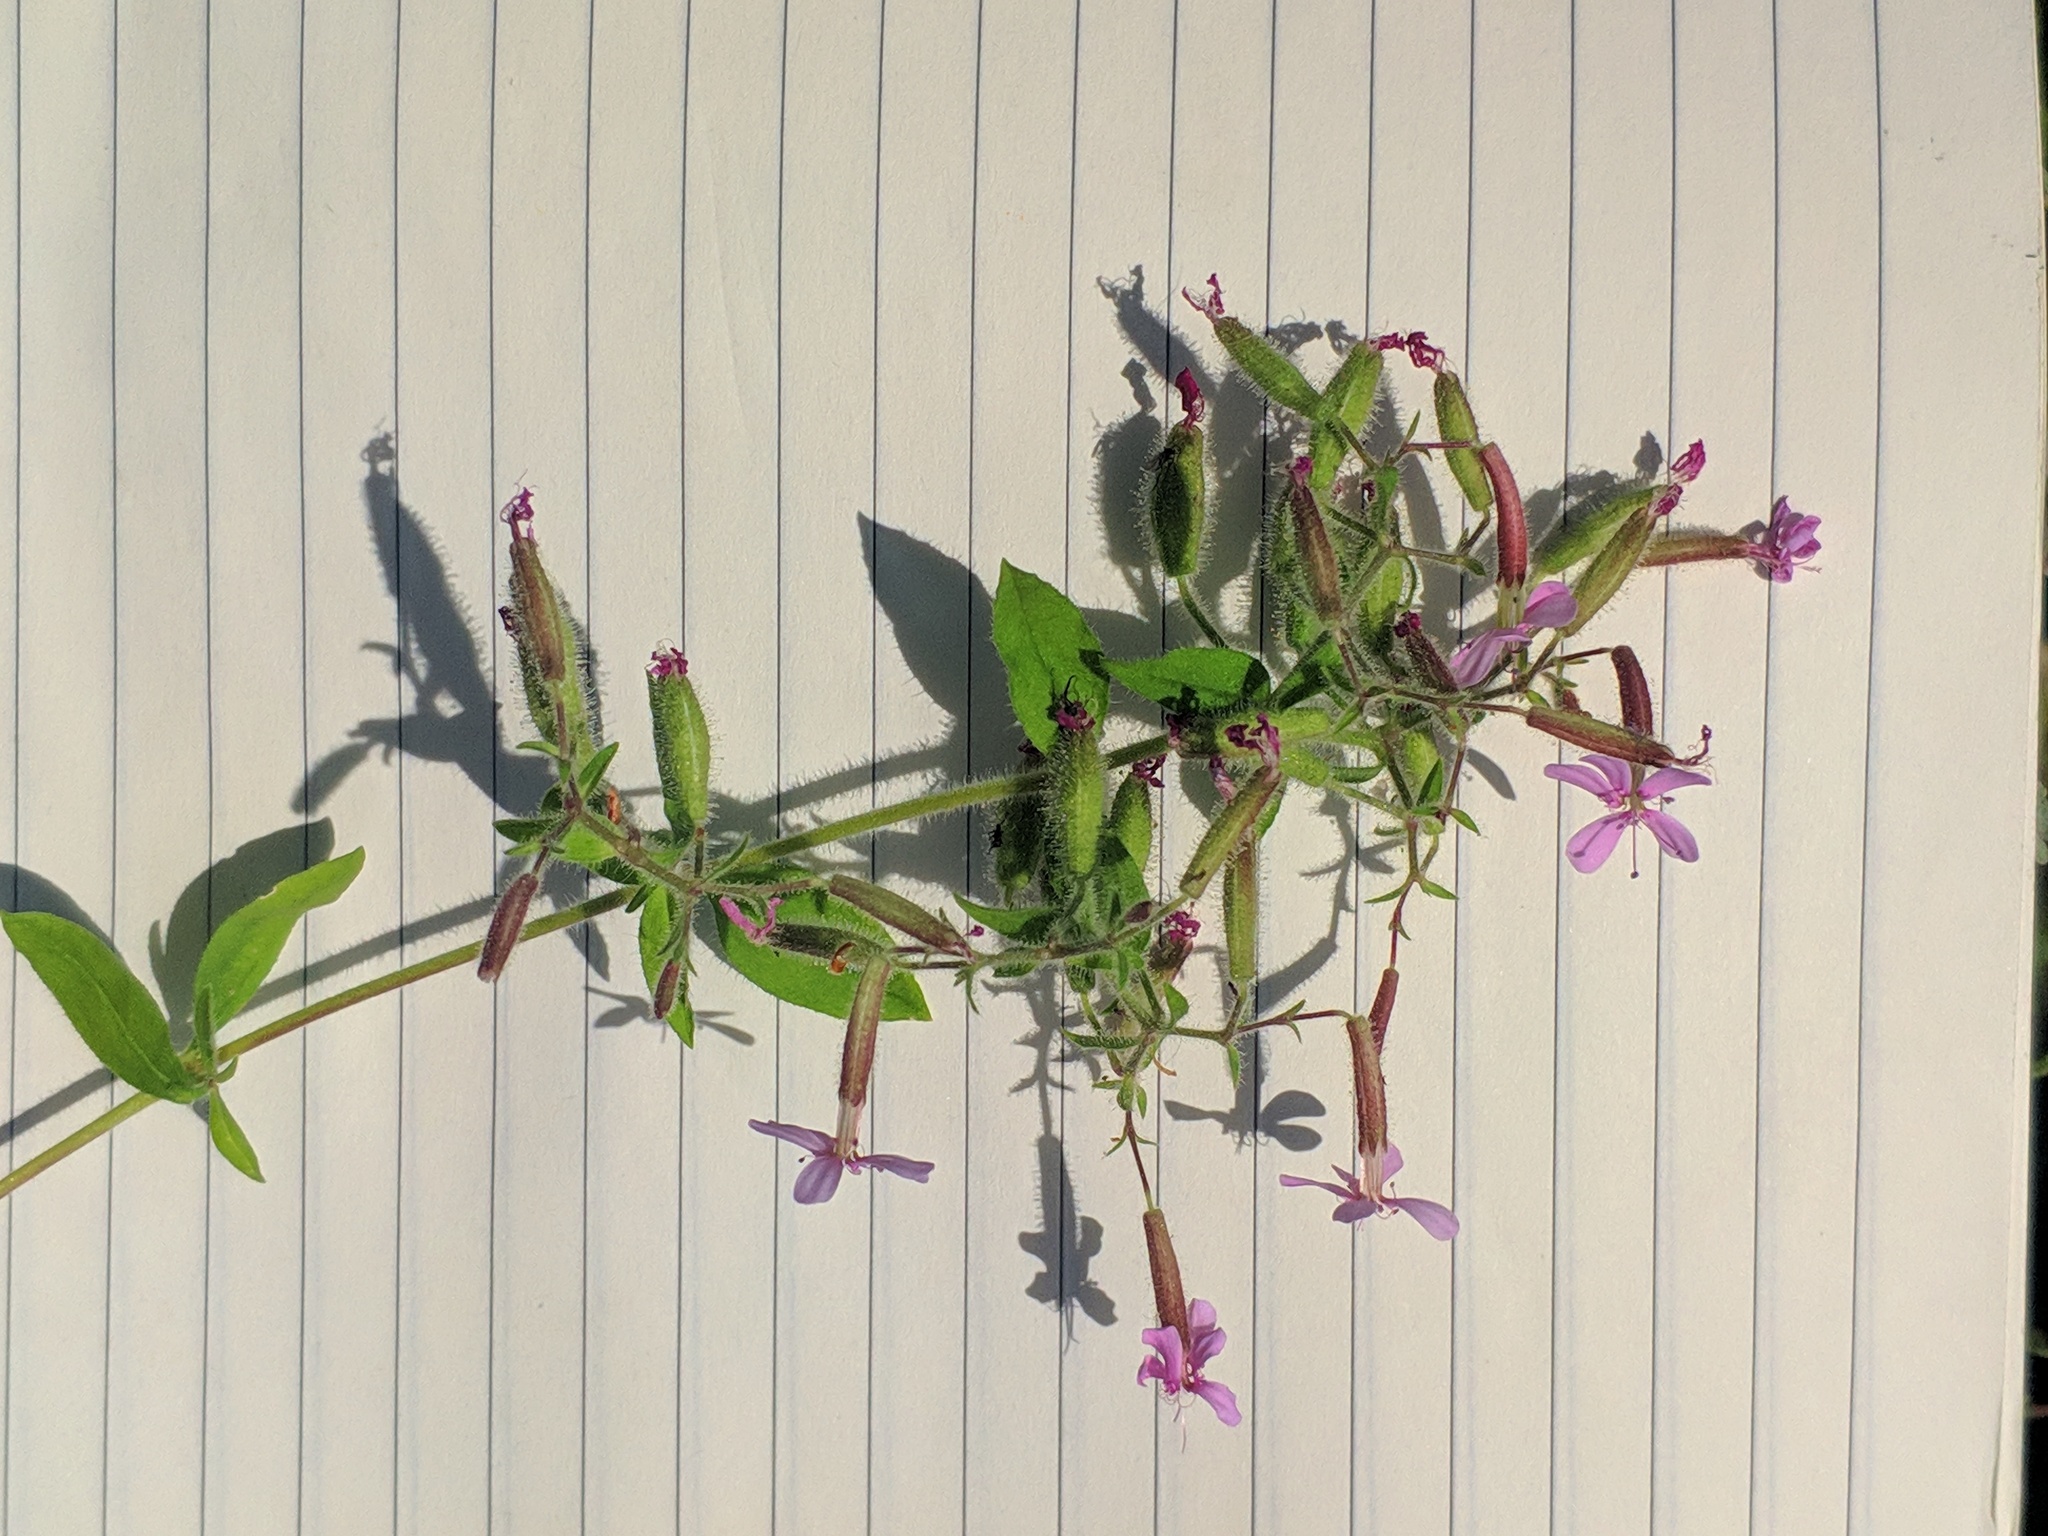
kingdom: Plantae
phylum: Tracheophyta
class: Magnoliopsida
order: Caryophyllales
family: Caryophyllaceae
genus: Saponaria
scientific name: Saponaria ocymoides
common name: Rock soapwort
